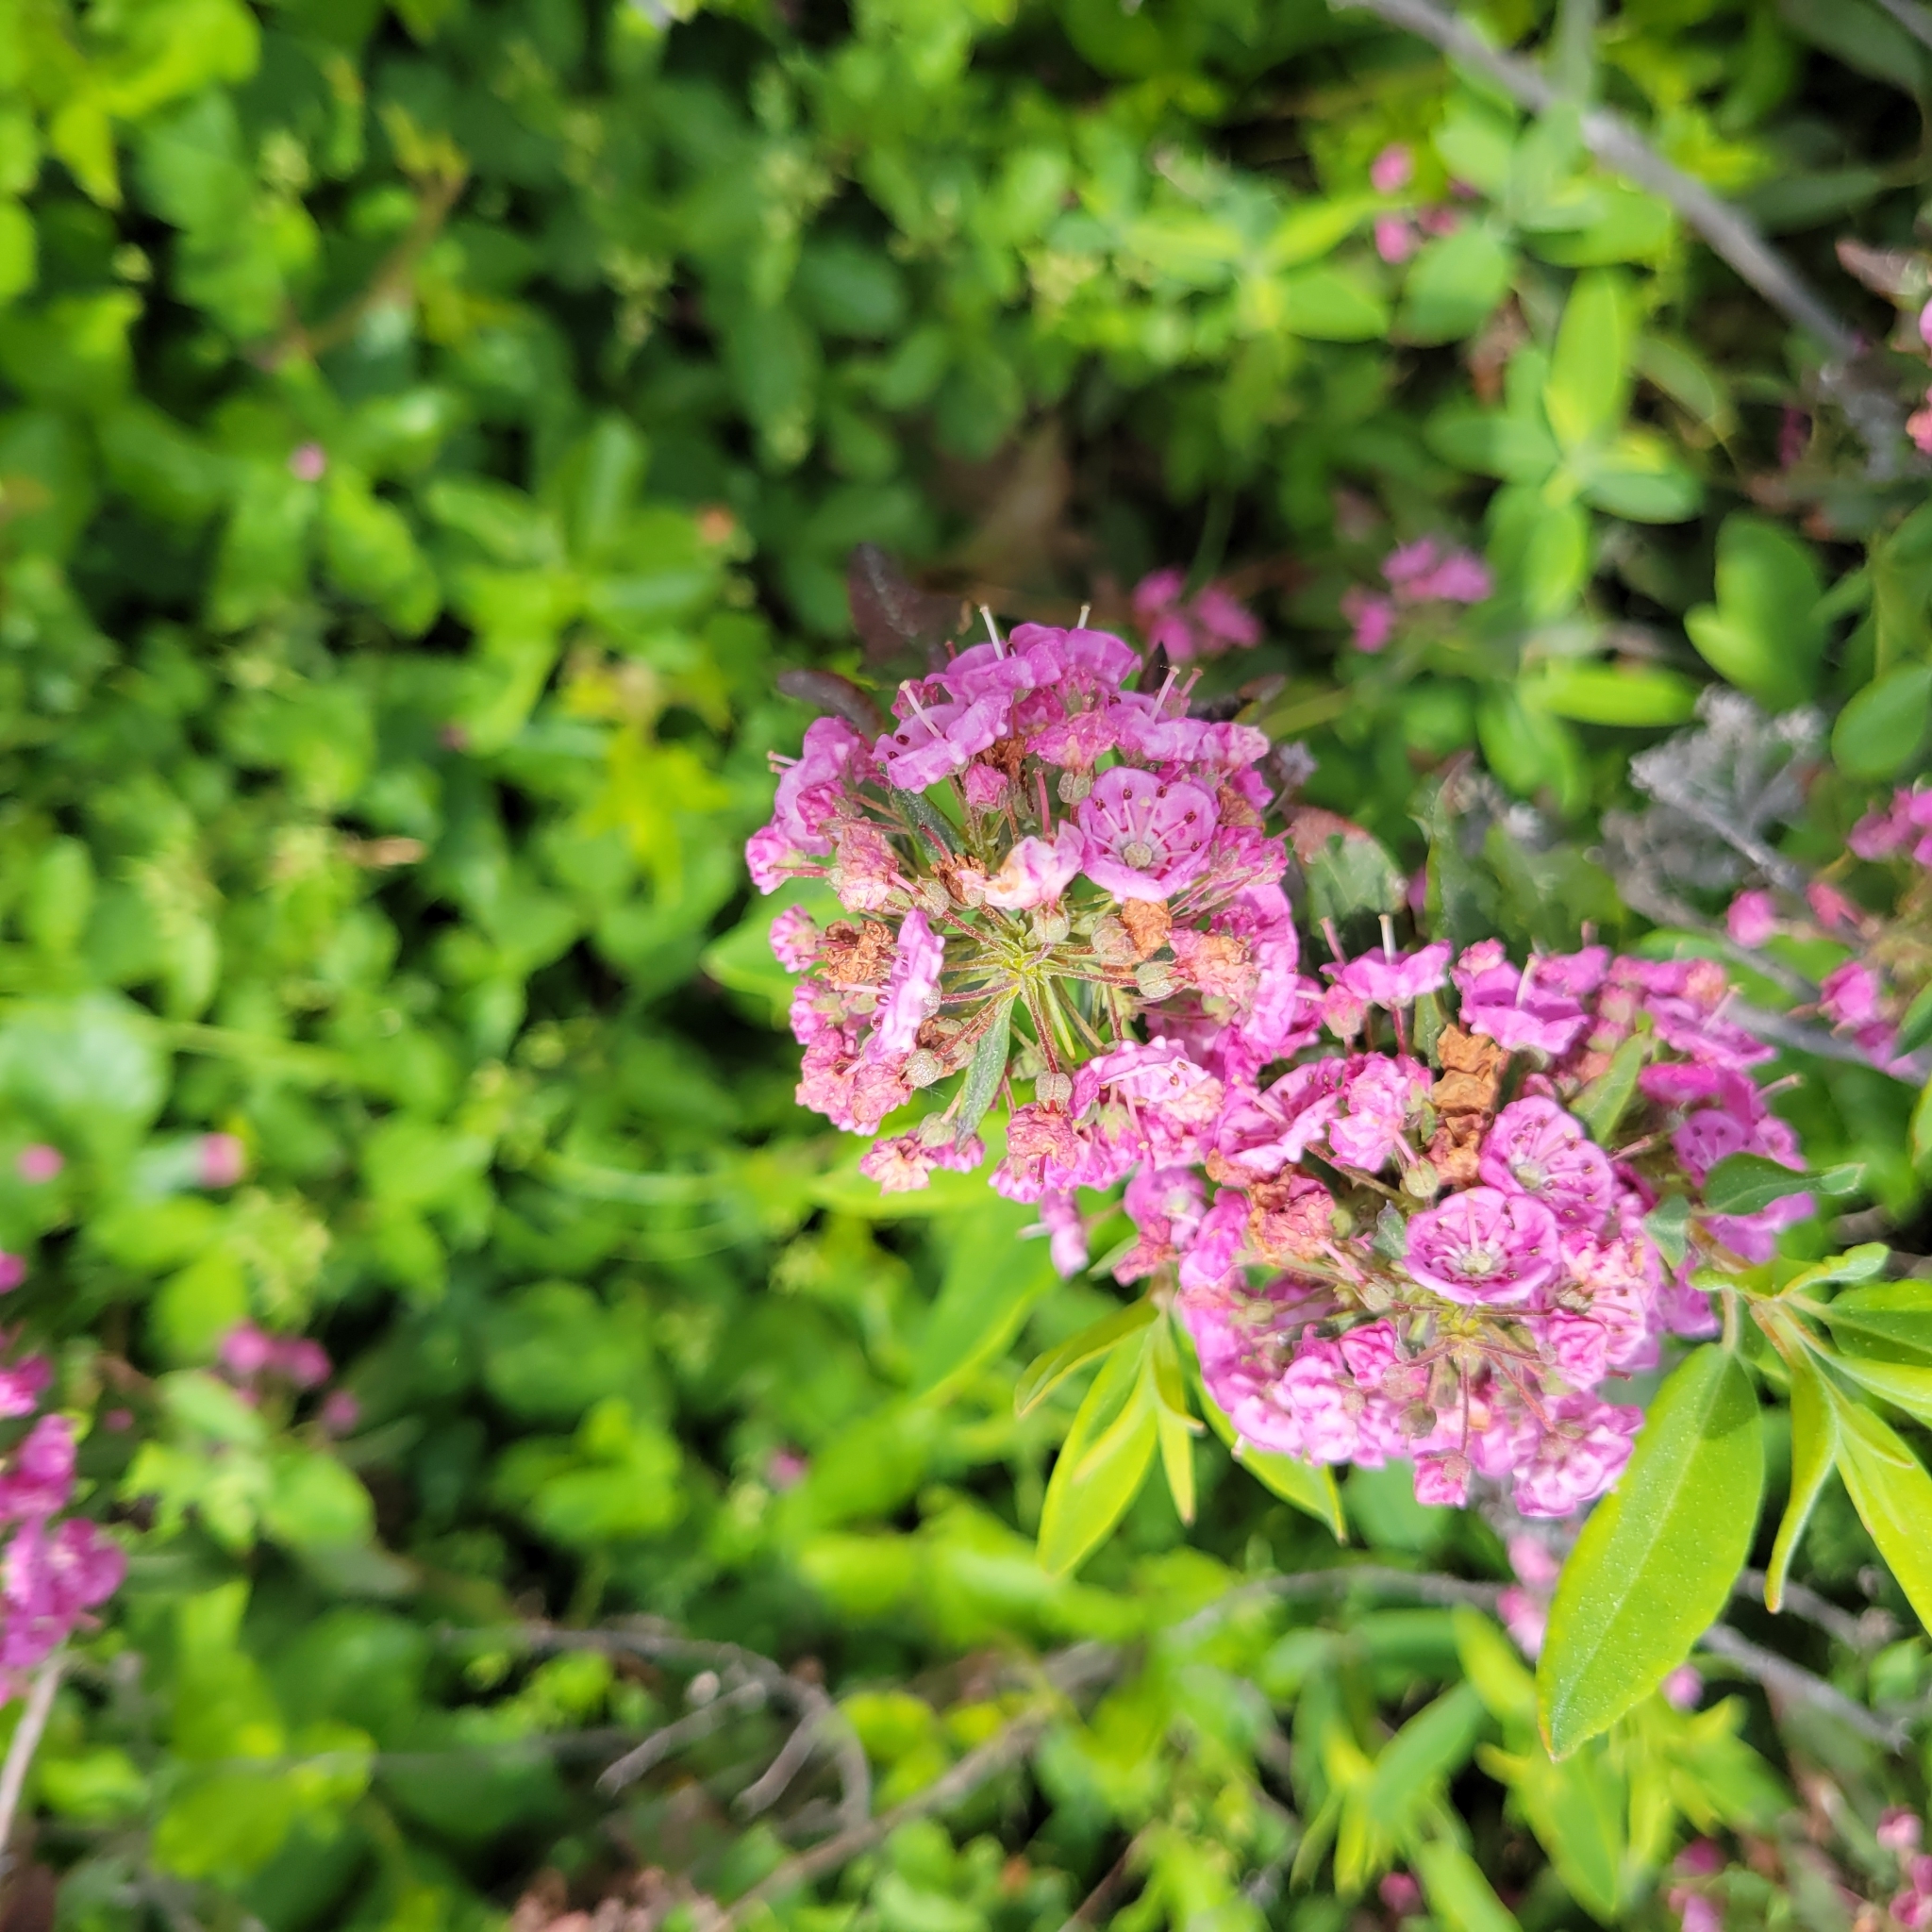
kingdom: Plantae
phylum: Tracheophyta
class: Magnoliopsida
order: Ericales
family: Ericaceae
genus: Kalmia
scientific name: Kalmia angustifolia
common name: Sheep-laurel
